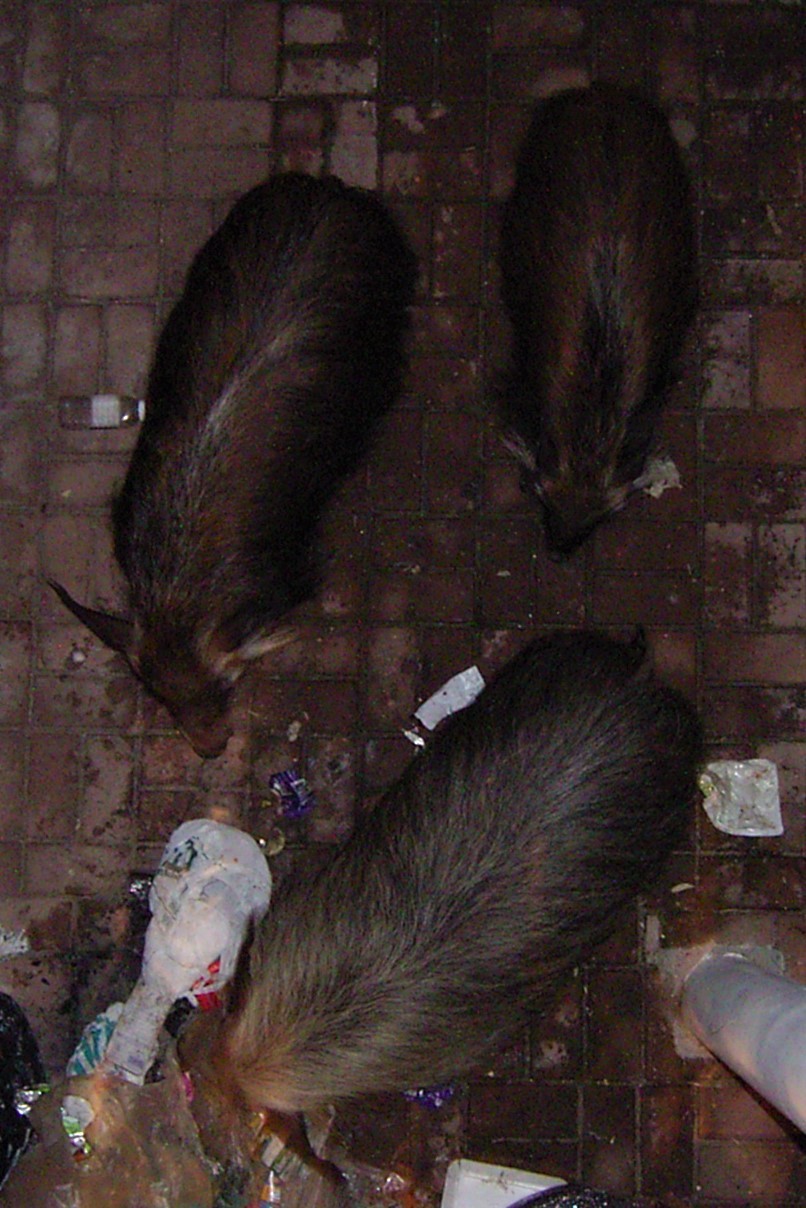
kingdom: Animalia
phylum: Chordata
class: Mammalia
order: Artiodactyla
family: Suidae
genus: Potamochoerus
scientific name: Potamochoerus larvatus
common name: Bushpig
